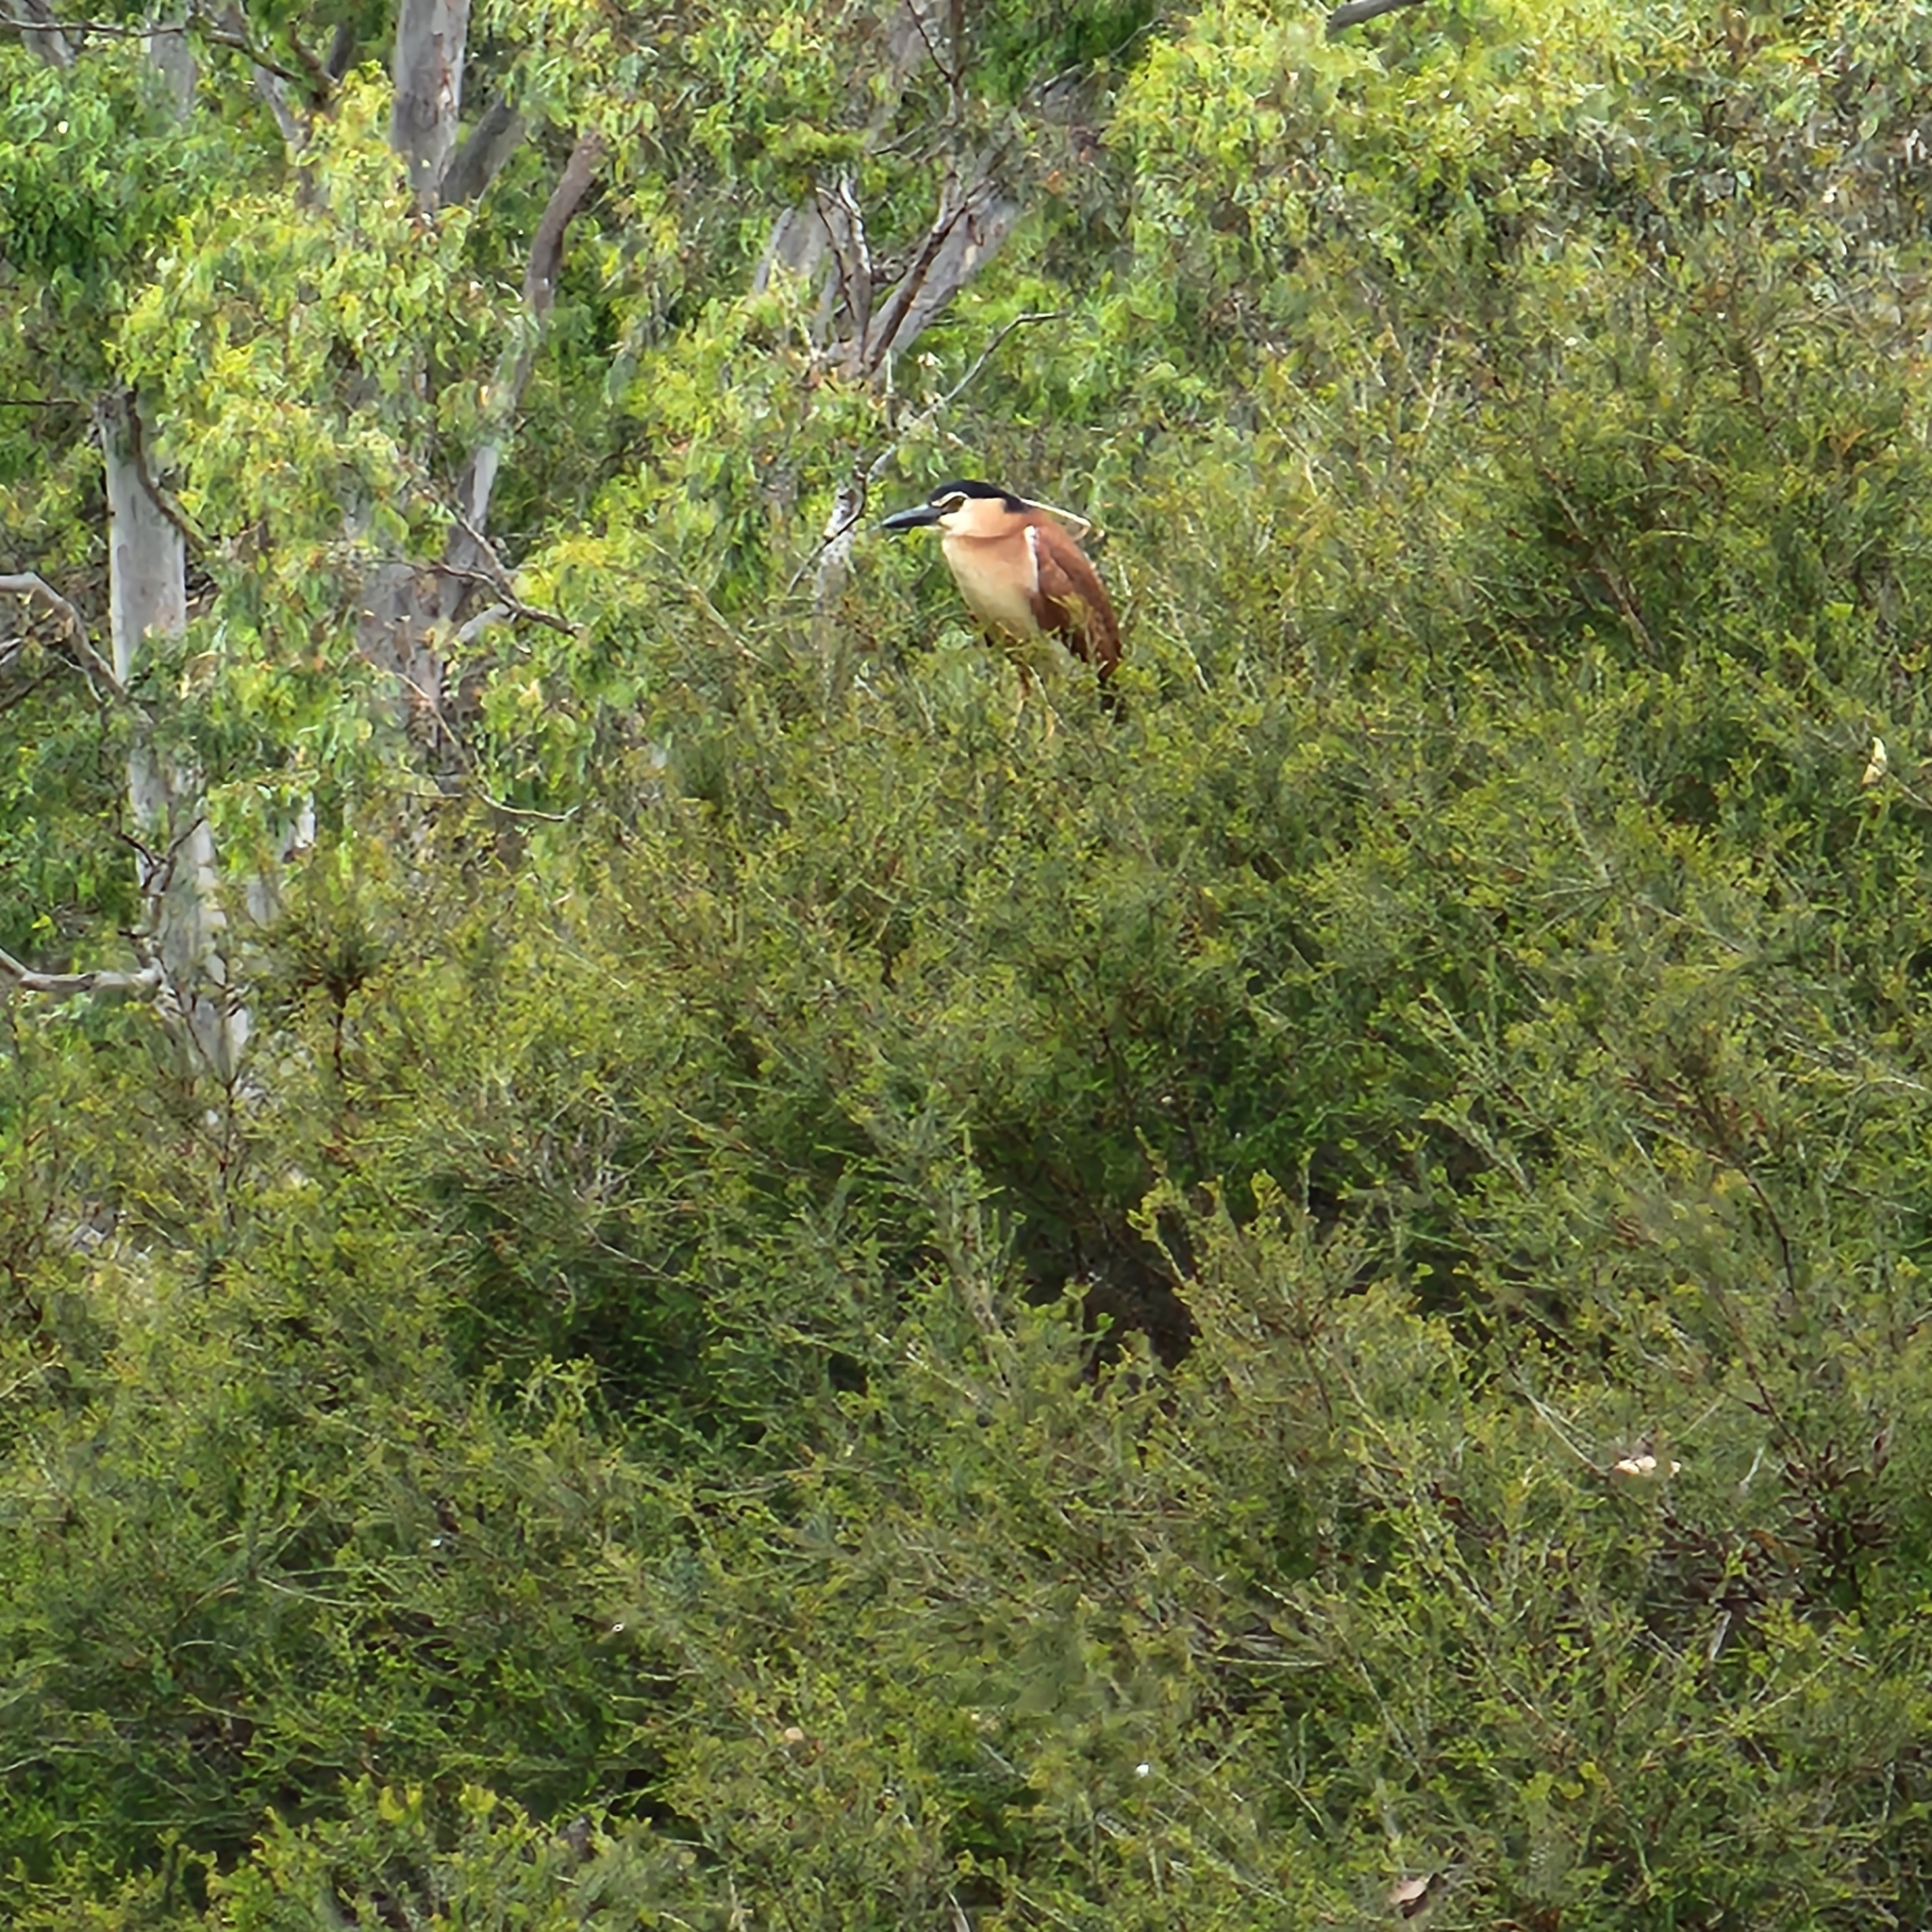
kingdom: Animalia
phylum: Chordata
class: Aves
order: Pelecaniformes
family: Ardeidae
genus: Nycticorax
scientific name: Nycticorax caledonicus
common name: Rufous night-heron
